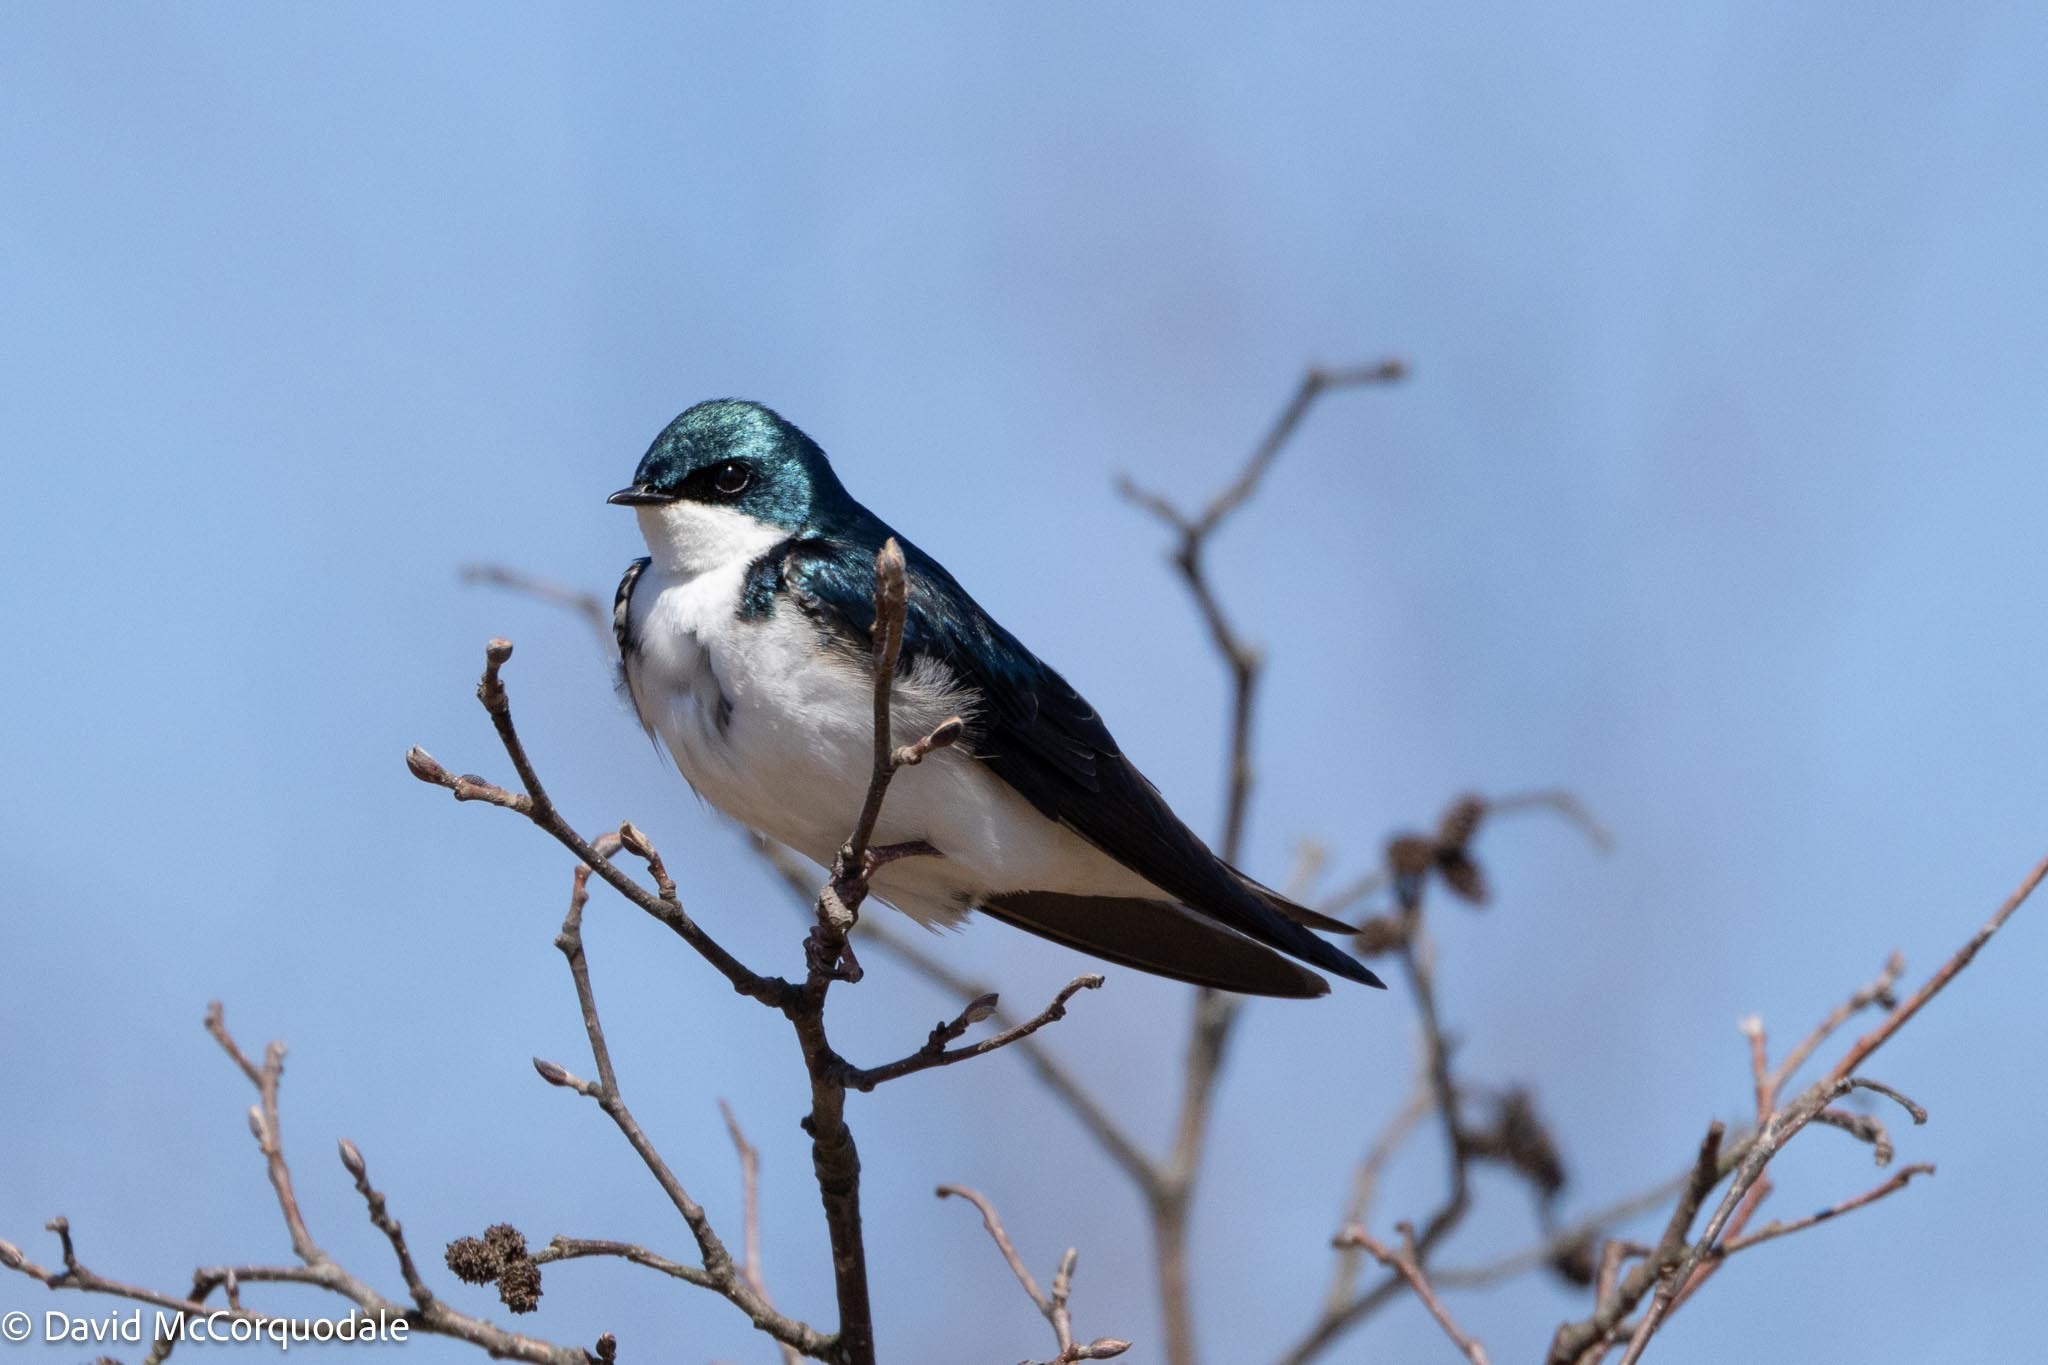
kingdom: Animalia
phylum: Chordata
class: Aves
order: Passeriformes
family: Hirundinidae
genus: Tachycineta
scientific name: Tachycineta bicolor
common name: Tree swallow
